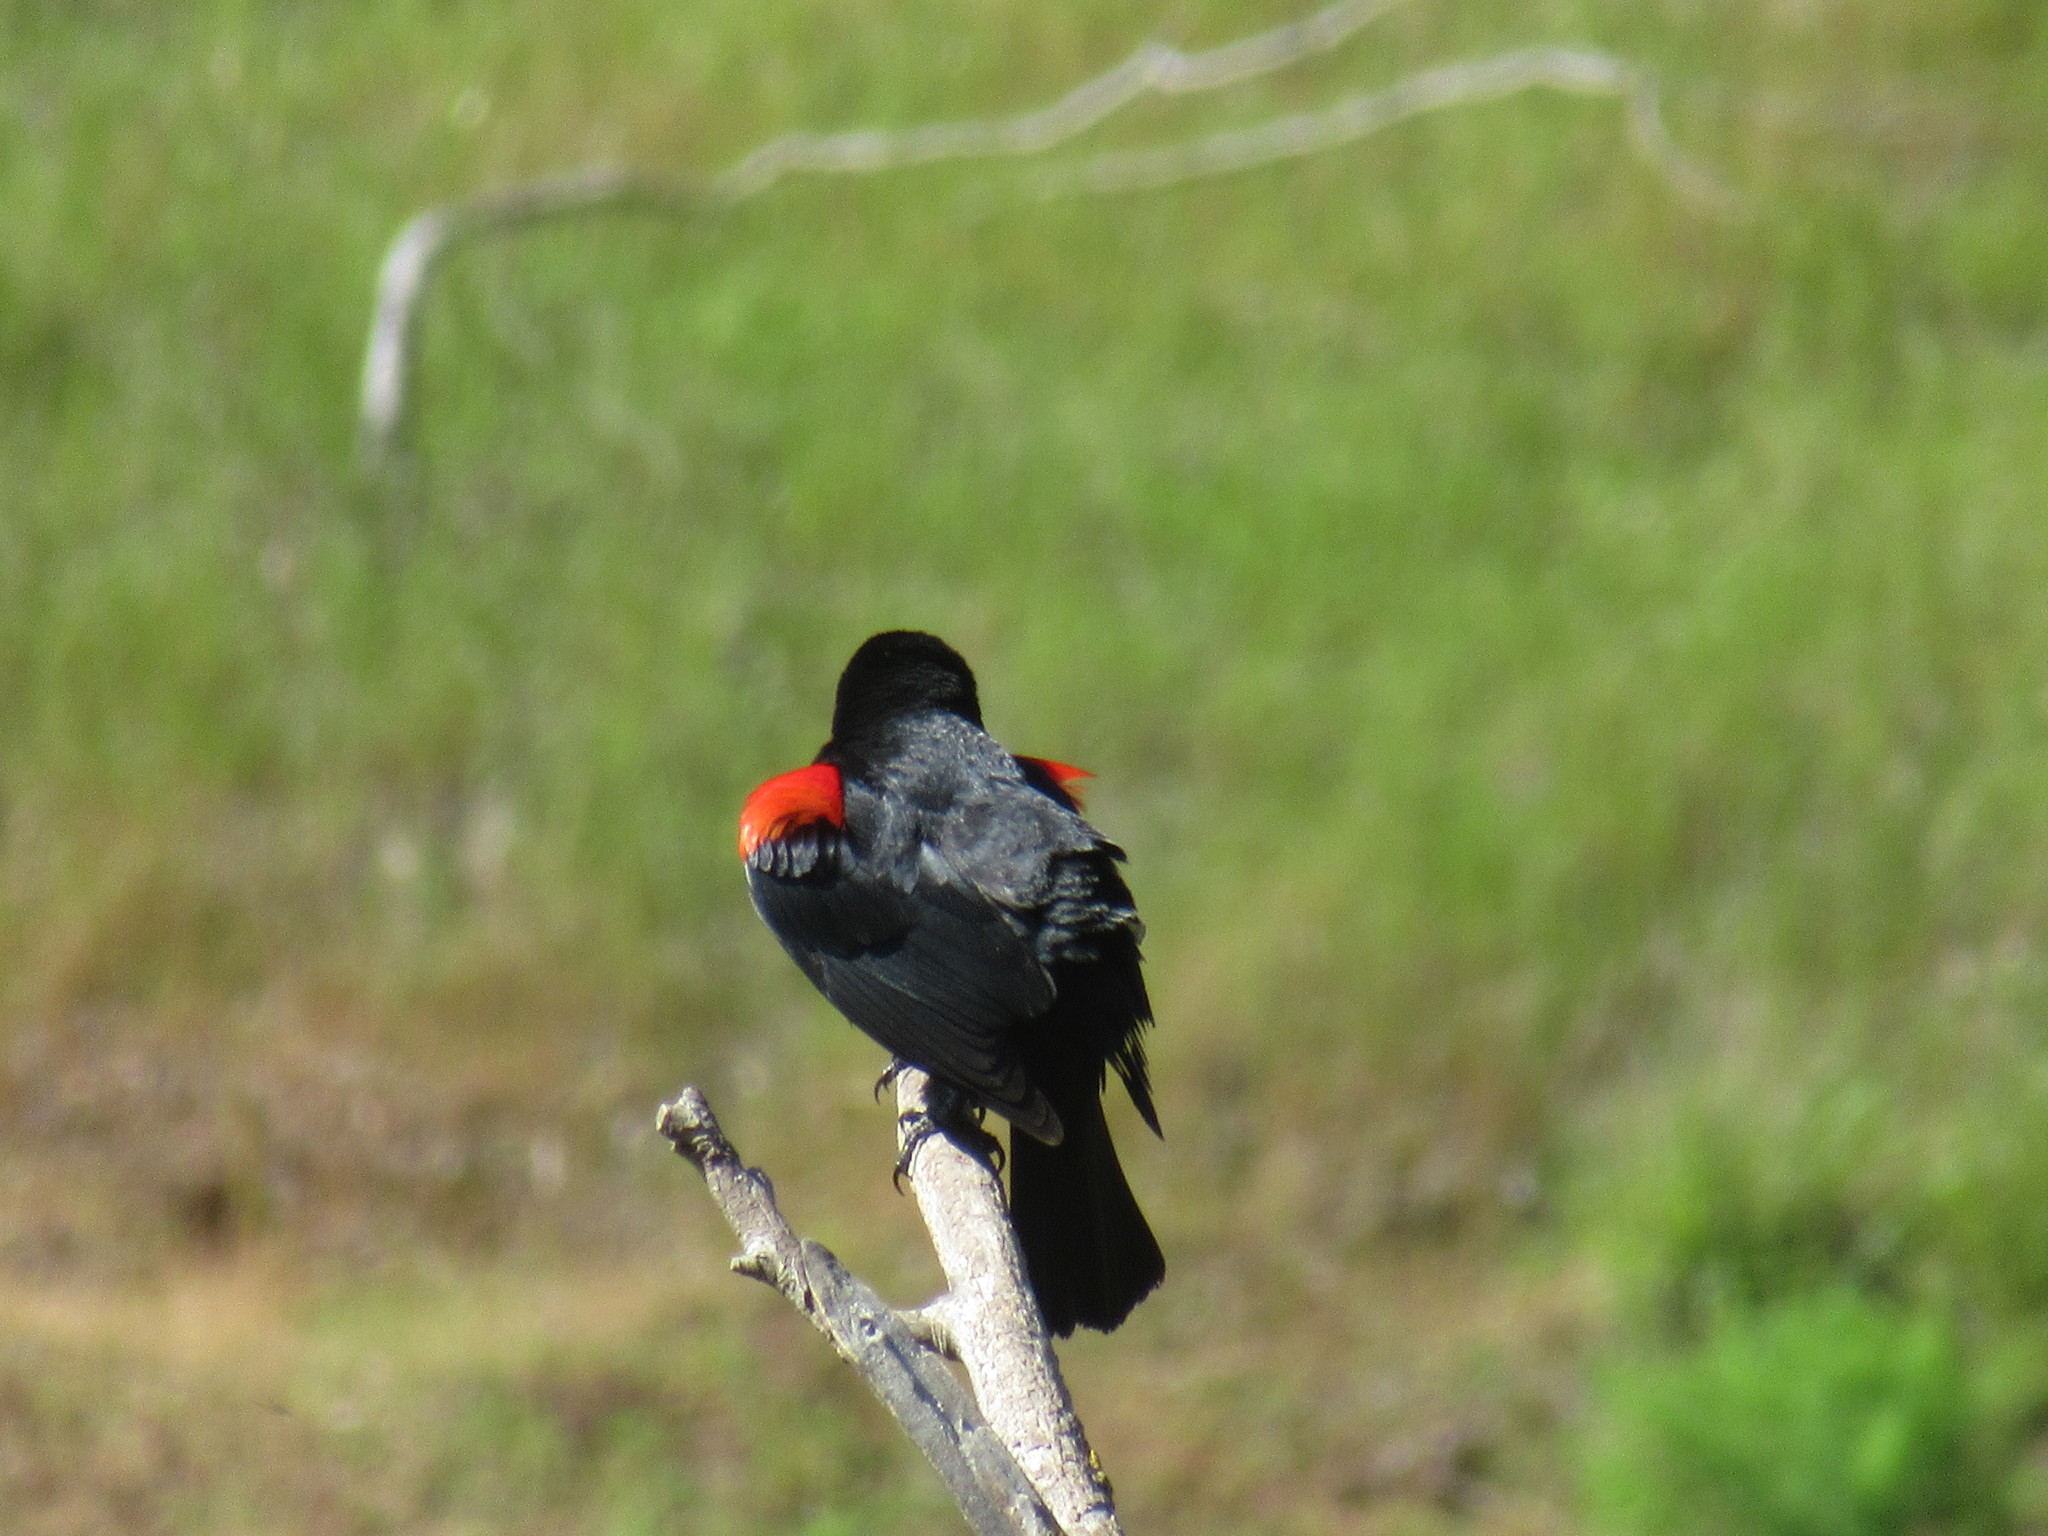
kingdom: Animalia
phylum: Chordata
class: Aves
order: Passeriformes
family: Icteridae
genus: Agelaius
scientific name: Agelaius phoeniceus
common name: Red-winged blackbird
